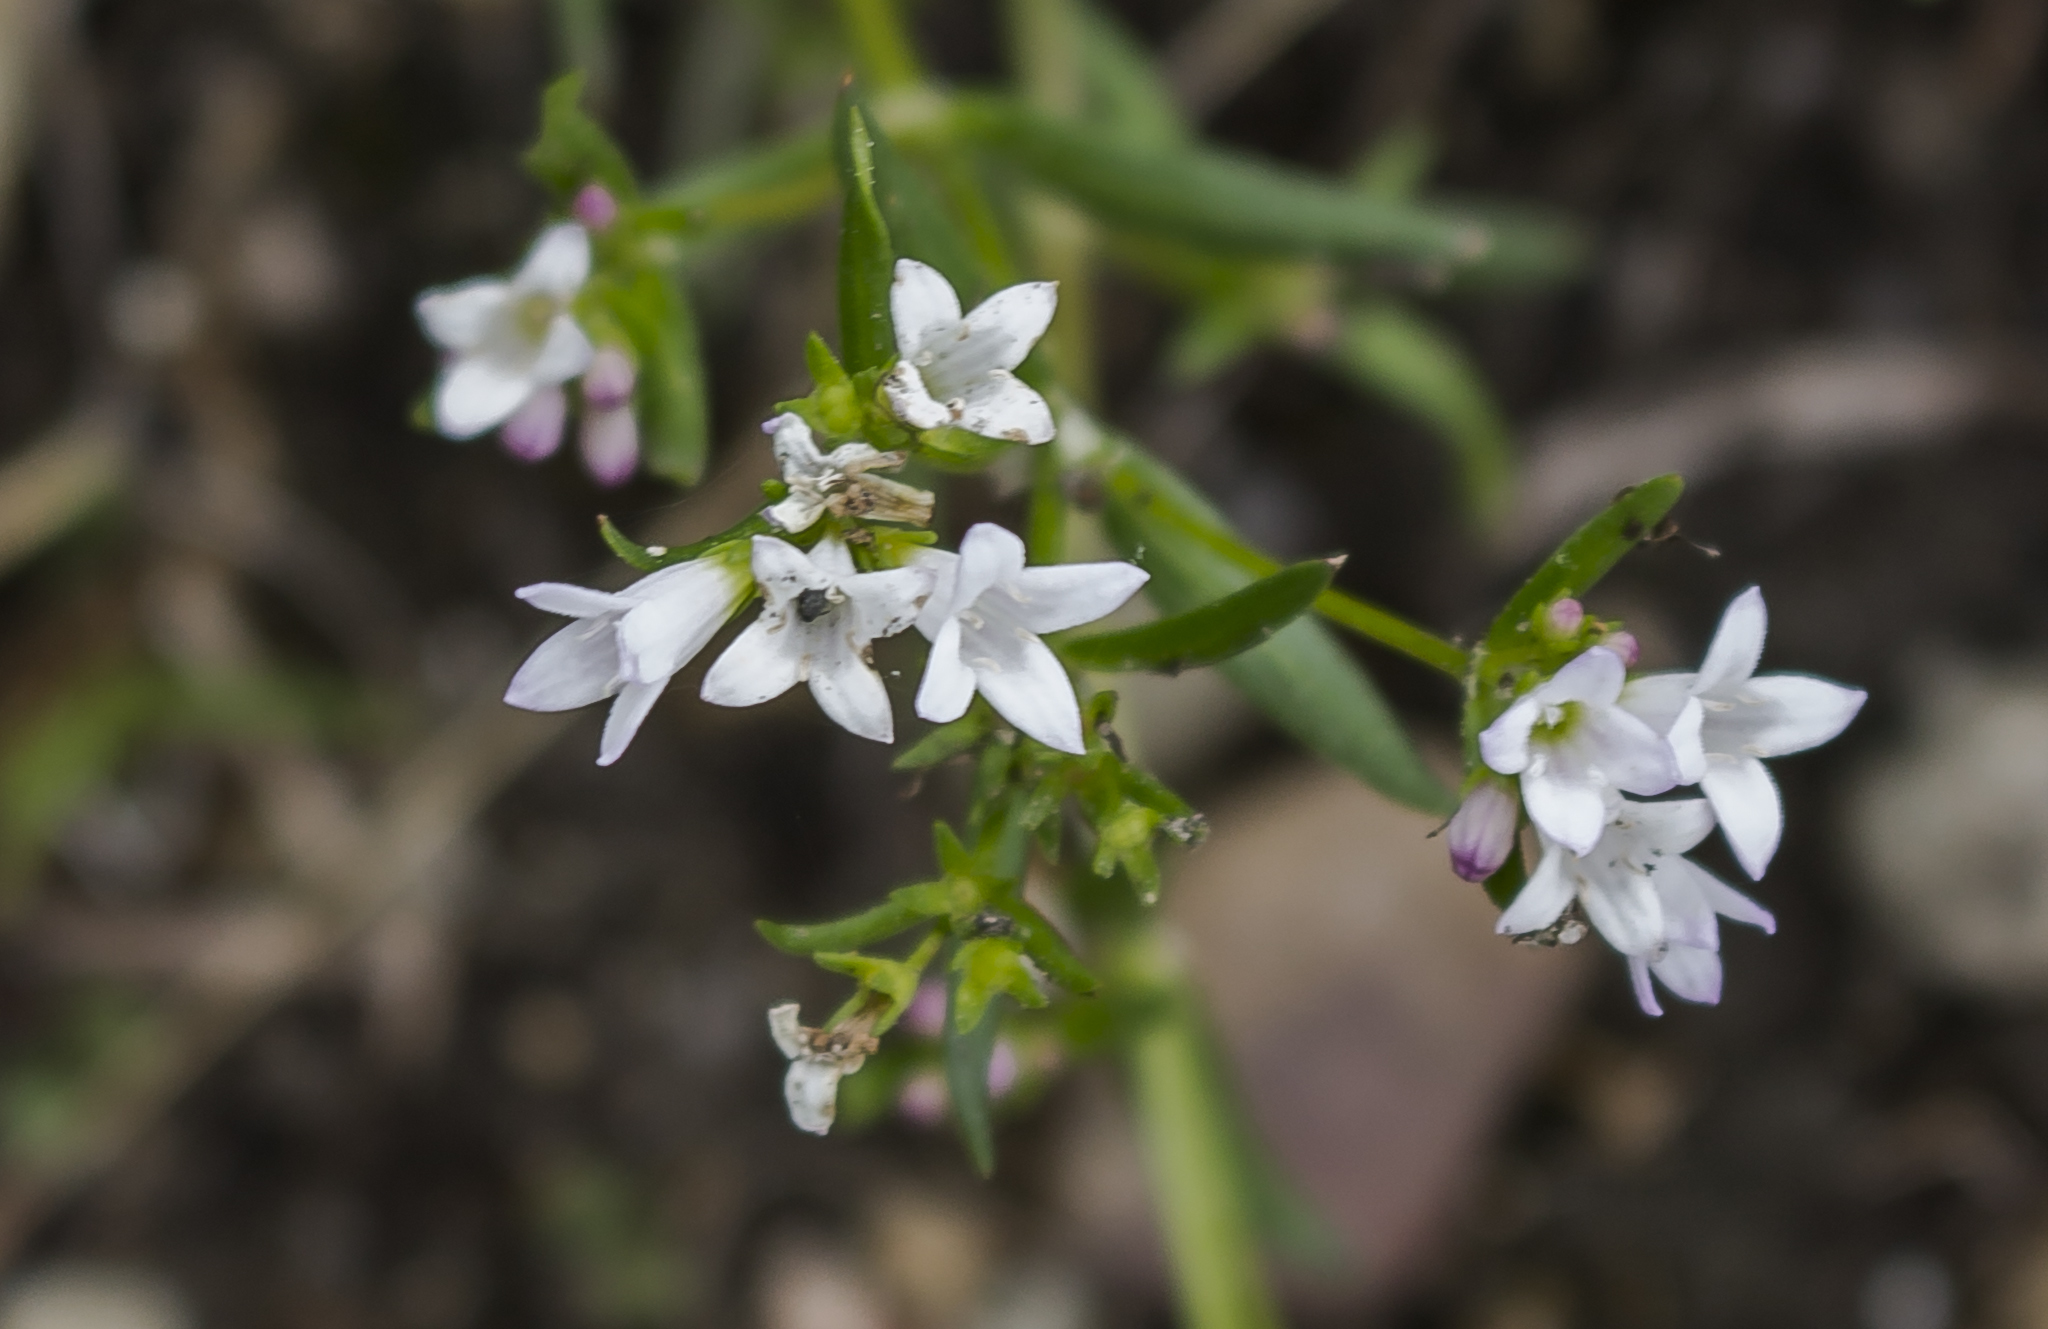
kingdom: Plantae
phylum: Tracheophyta
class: Magnoliopsida
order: Gentianales
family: Rubiaceae
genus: Houstonia
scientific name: Houstonia longifolia
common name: Long-leaved bluets
